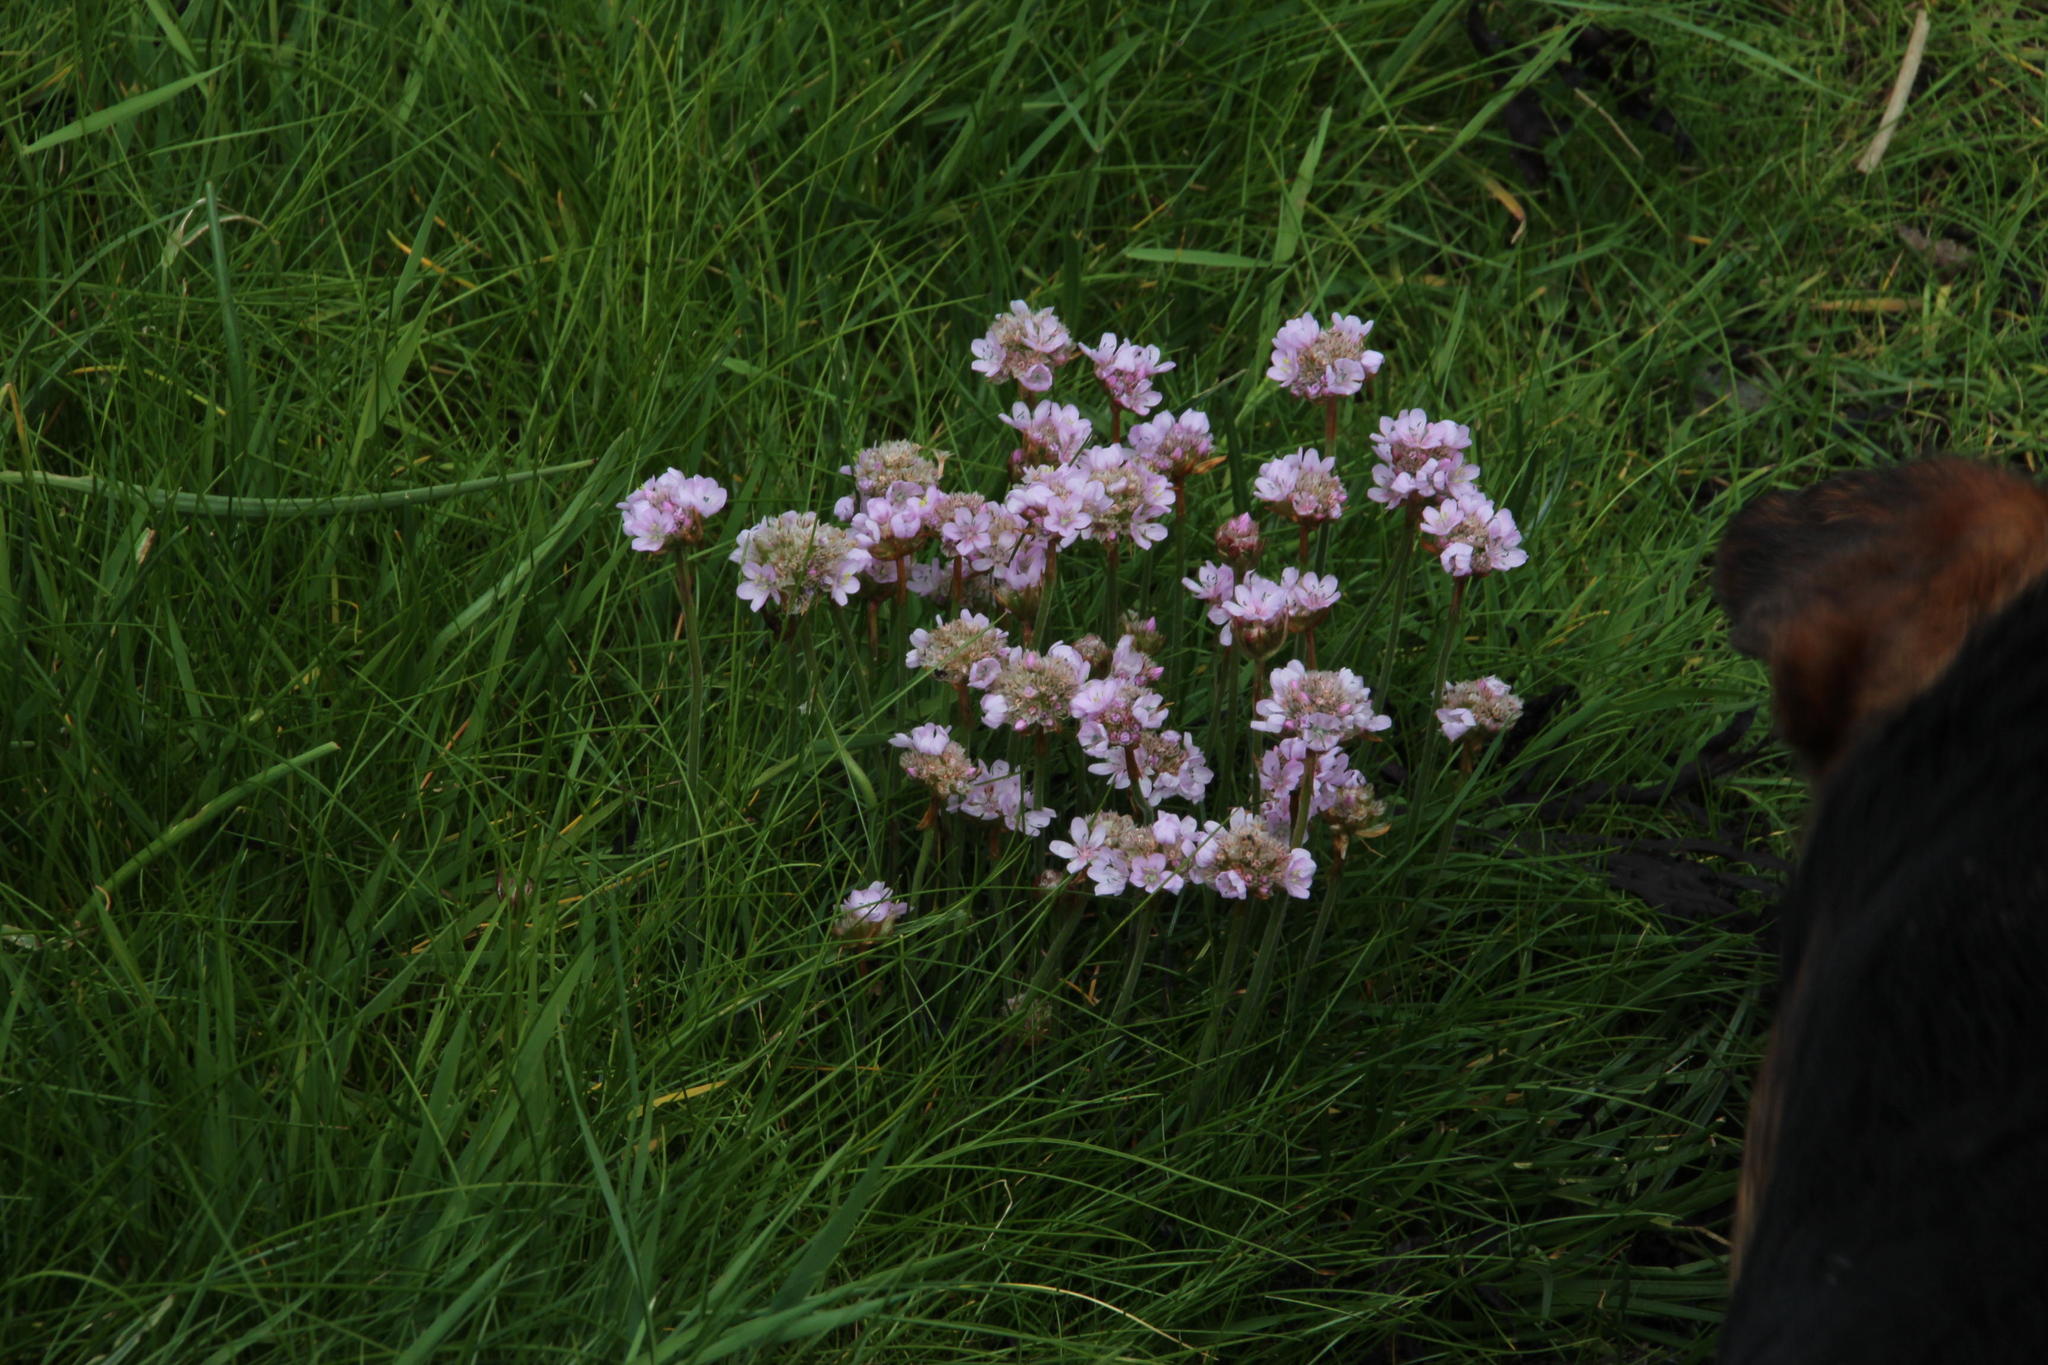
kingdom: Plantae
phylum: Tracheophyta
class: Magnoliopsida
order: Caryophyllales
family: Plumbaginaceae
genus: Armeria
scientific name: Armeria maritima
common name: Thrift
